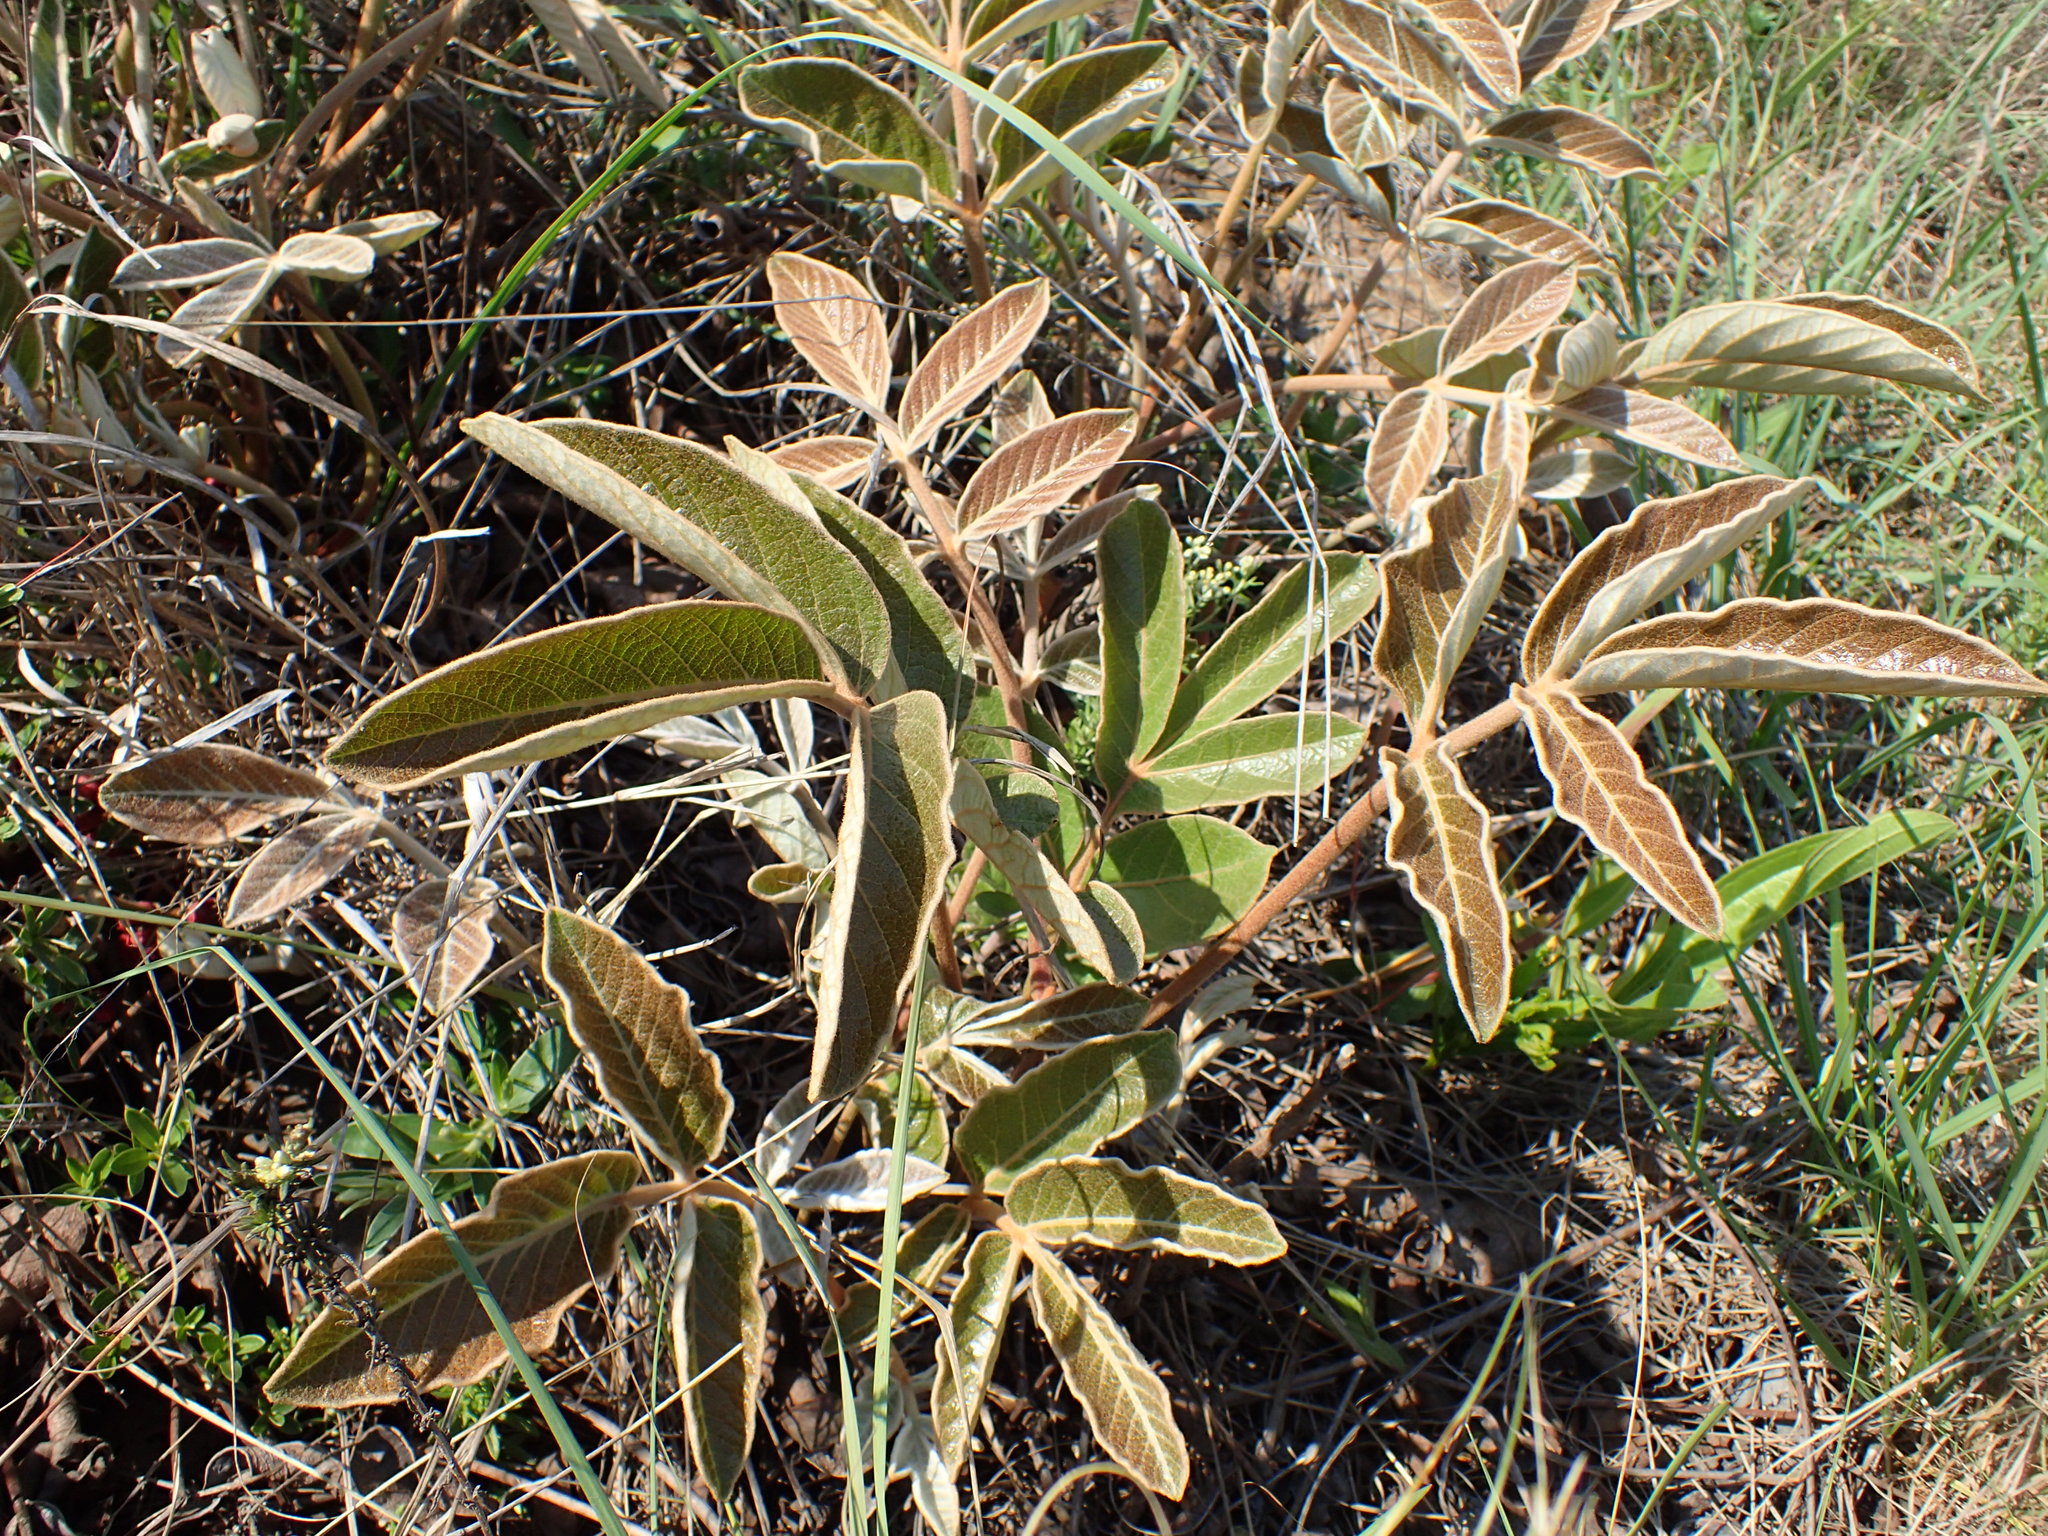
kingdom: Plantae
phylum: Tracheophyta
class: Magnoliopsida
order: Sapindales
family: Anacardiaceae
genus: Lannea
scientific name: Lannea edulis
